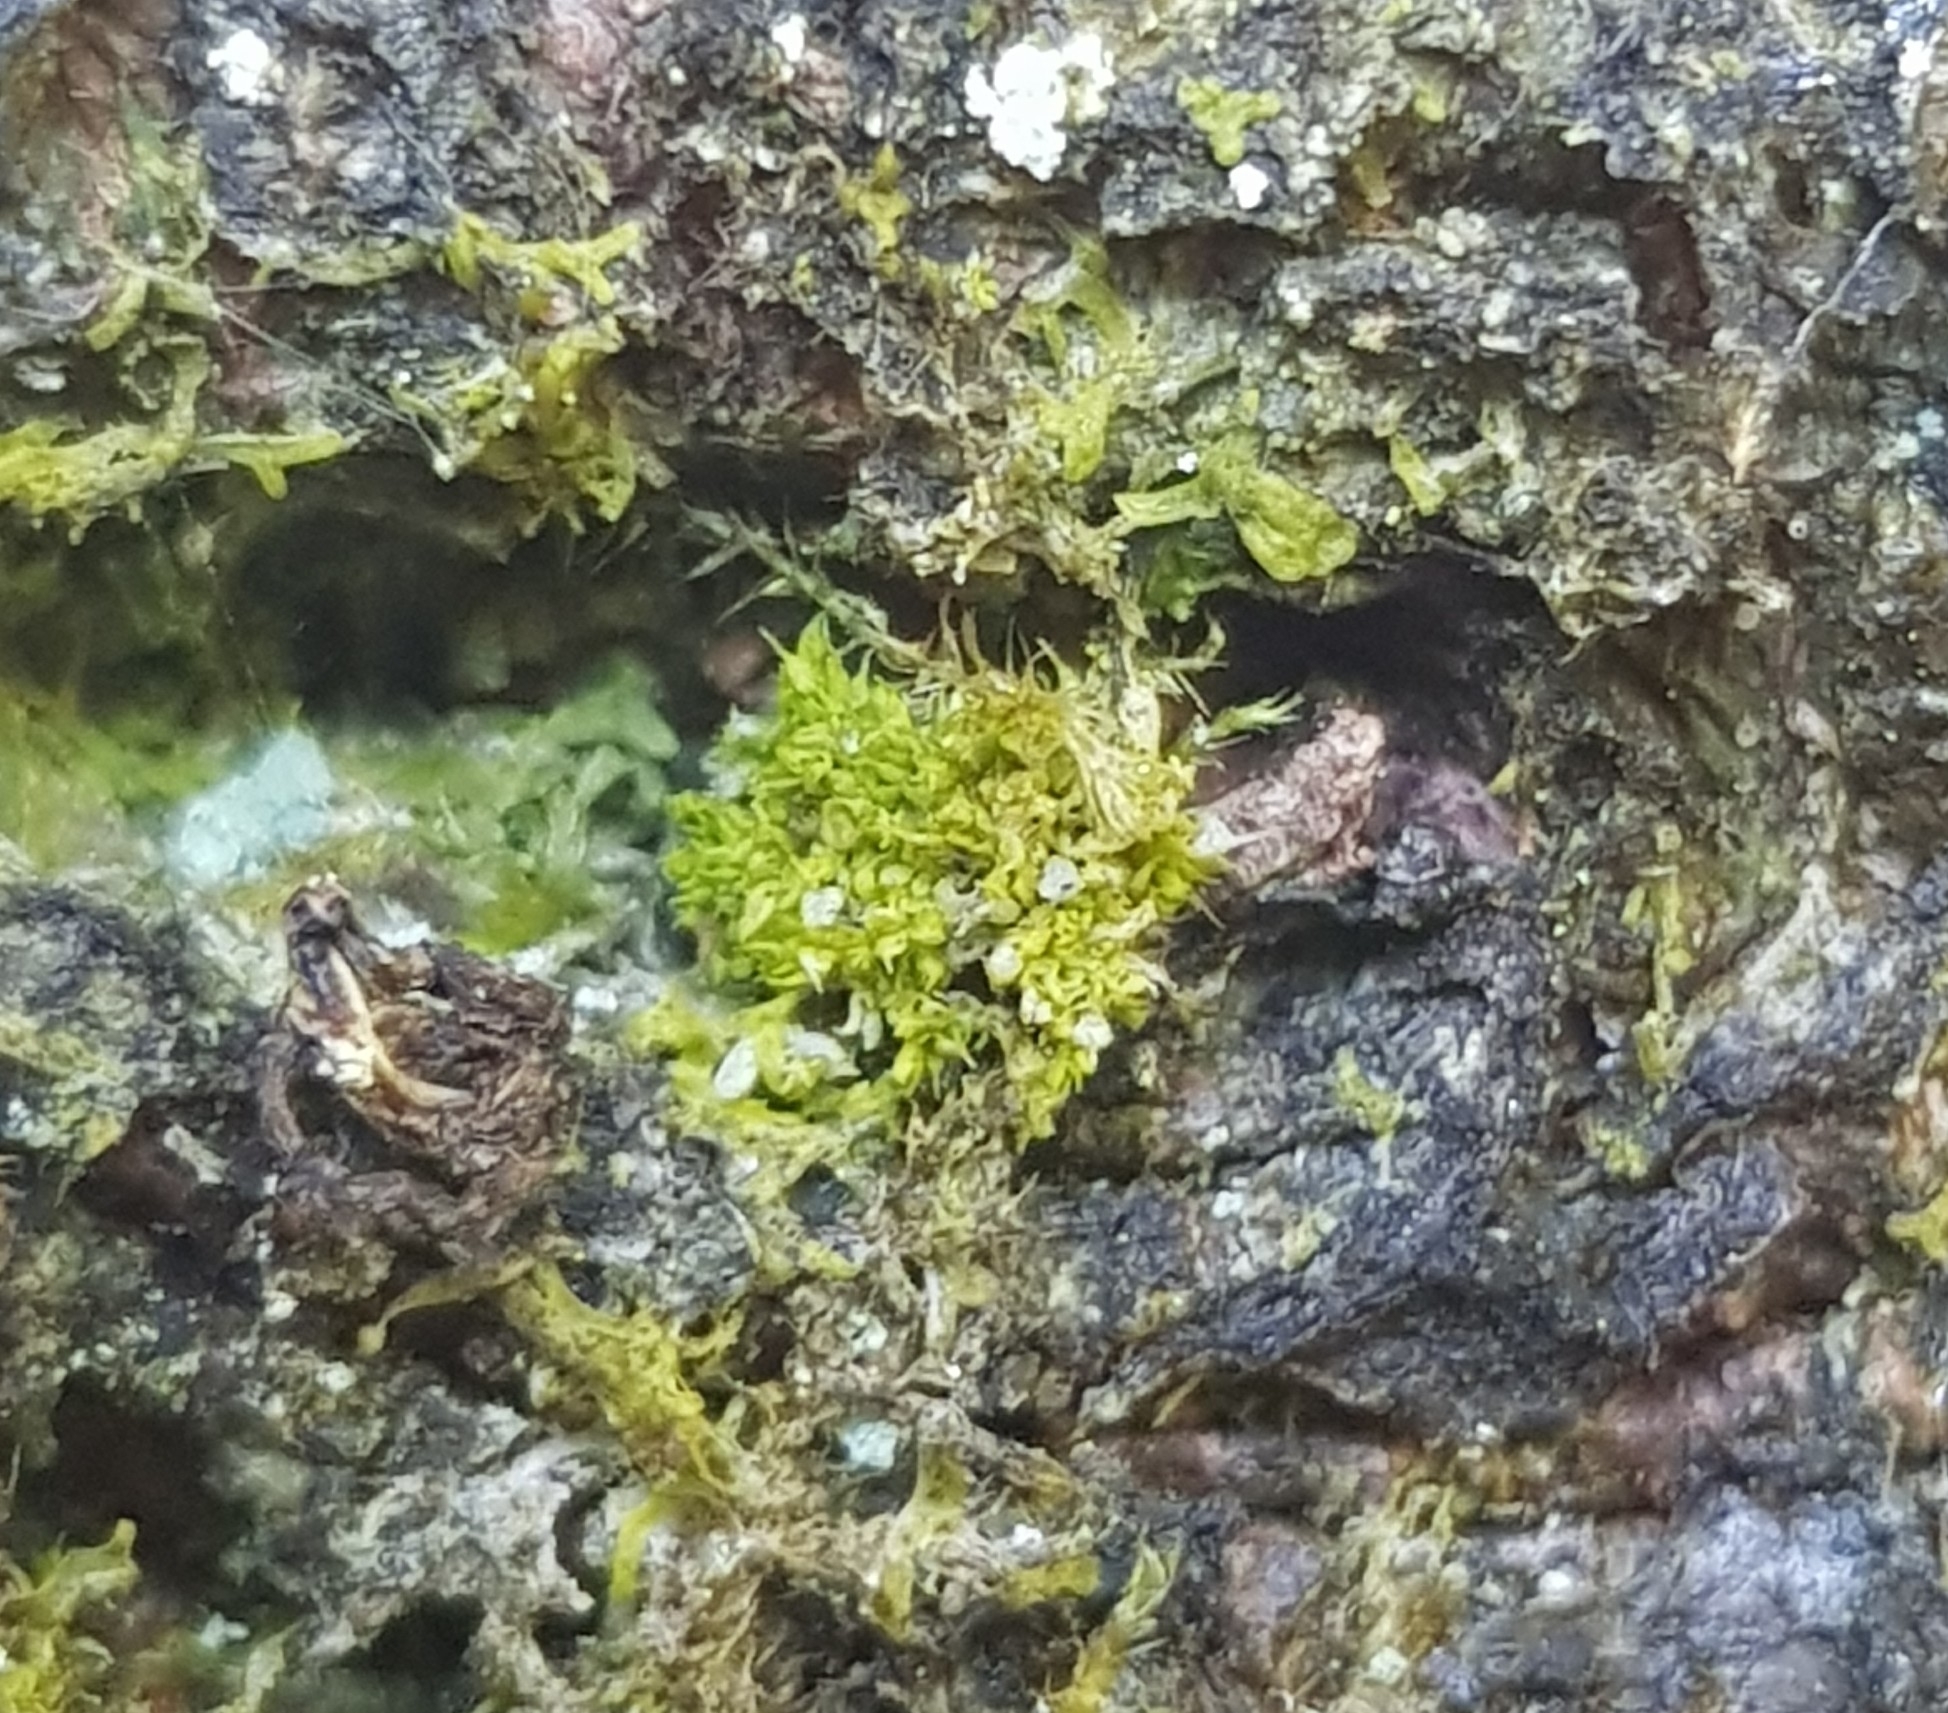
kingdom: Plantae
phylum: Marchantiophyta
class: Jungermanniopsida
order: Porellales
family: Lejeuneaceae
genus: Colura
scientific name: Colura calyptrifolia
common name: Fingered cowlwort
